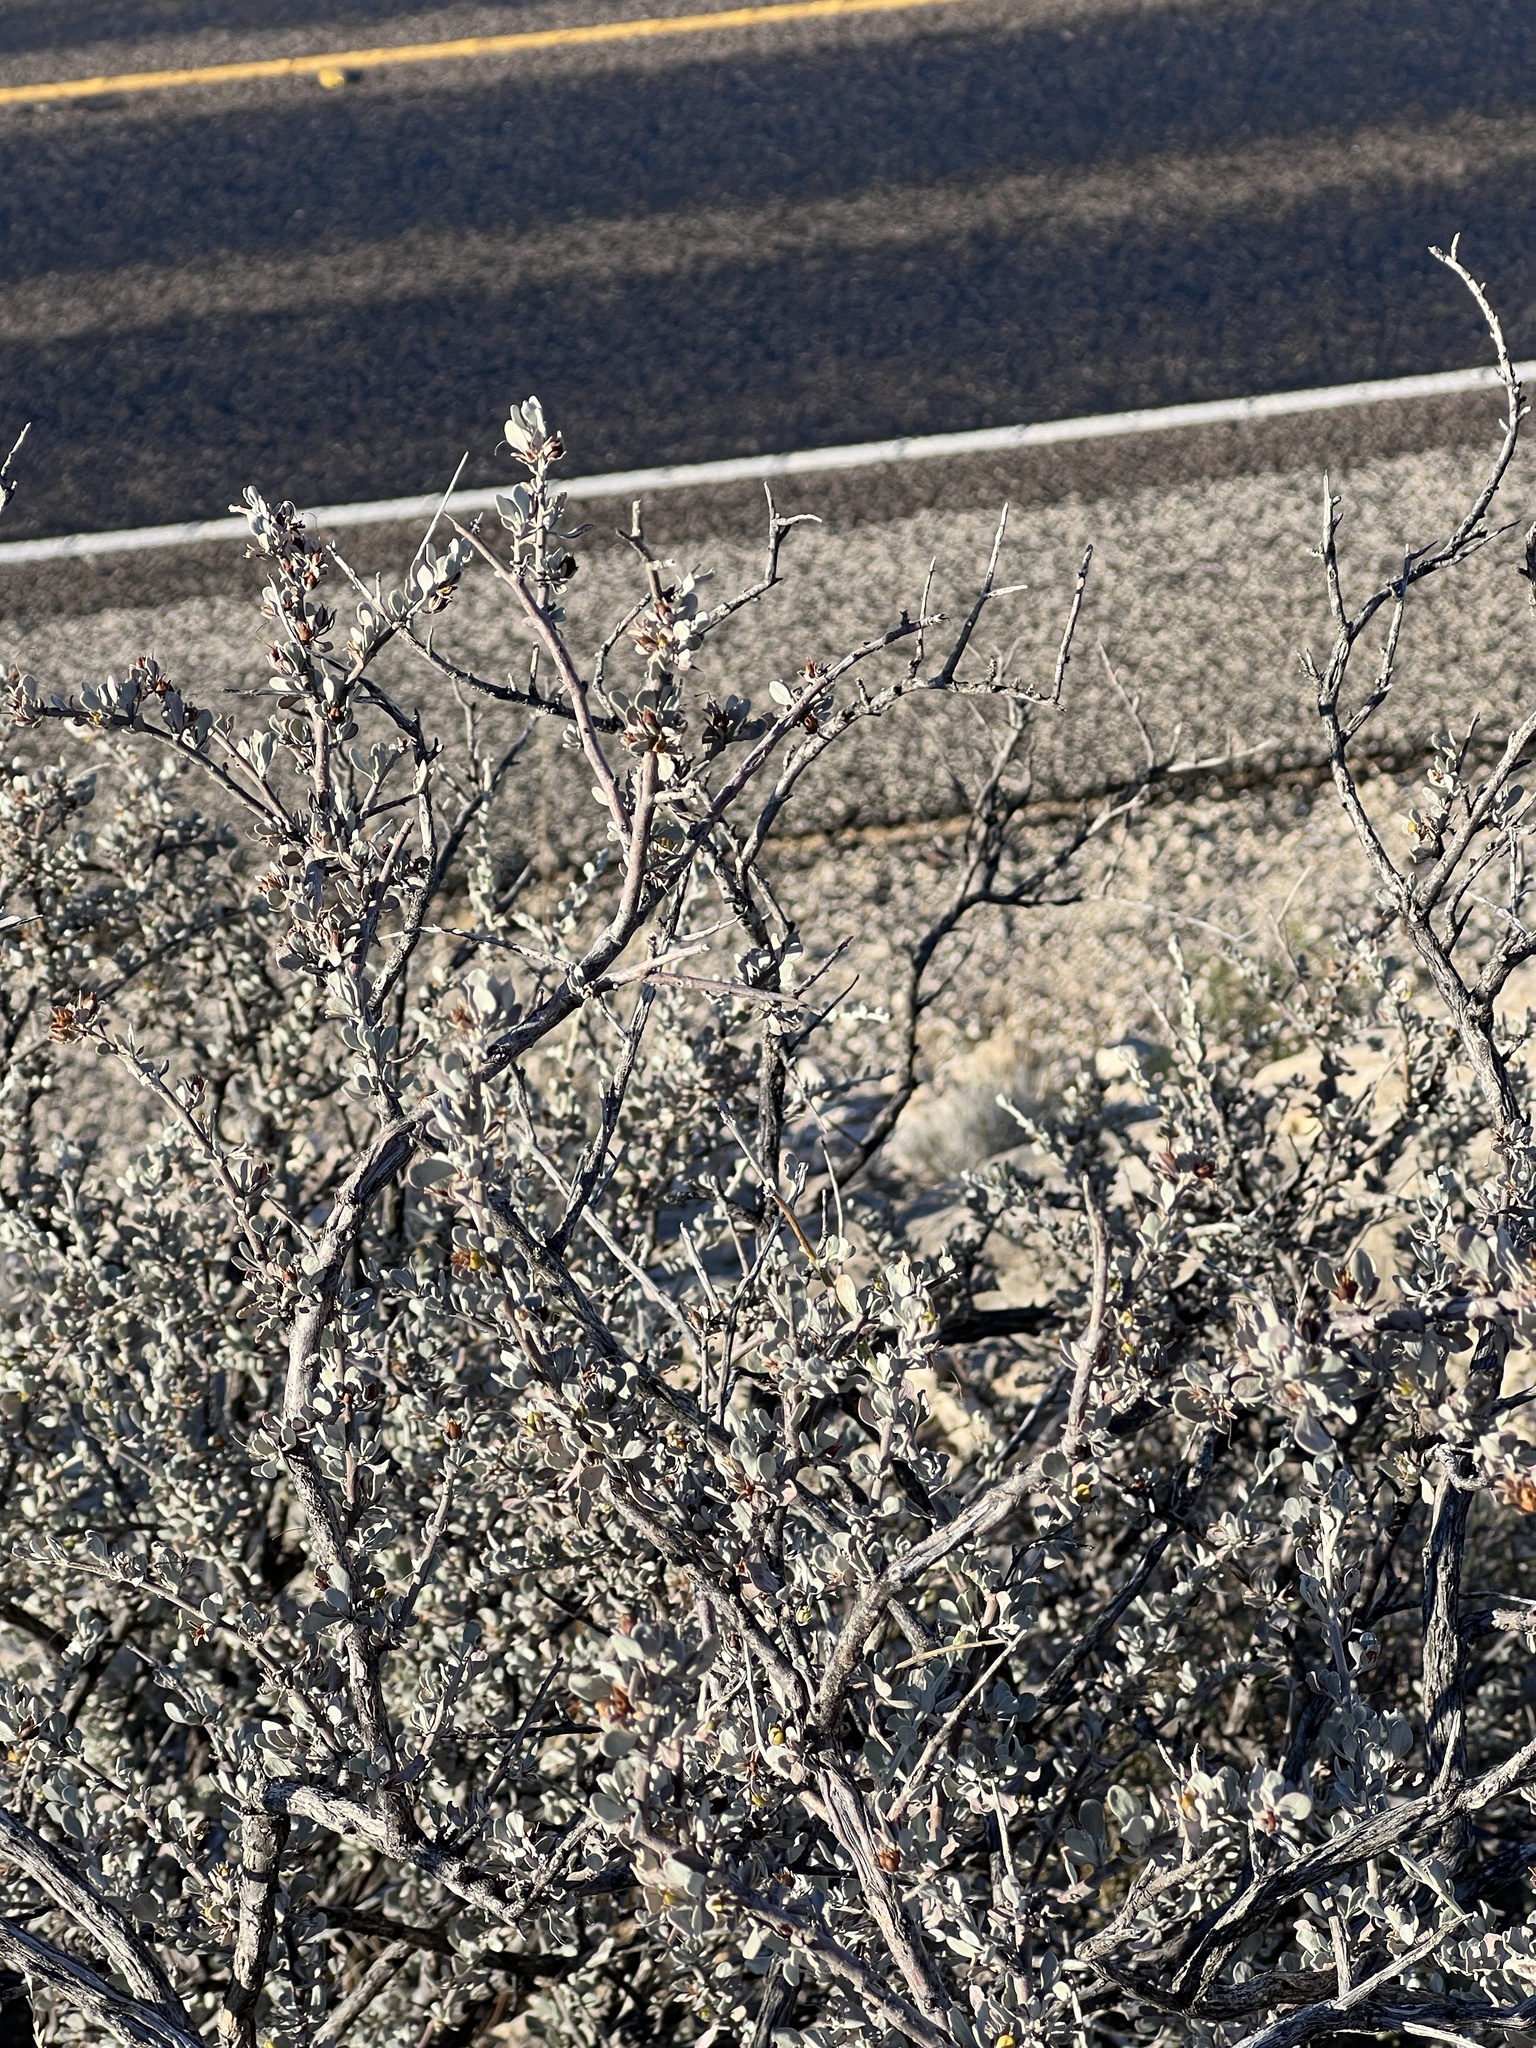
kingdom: Plantae
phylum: Tracheophyta
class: Magnoliopsida
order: Lamiales
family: Scrophulariaceae
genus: Leucophyllum
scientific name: Leucophyllum minus
